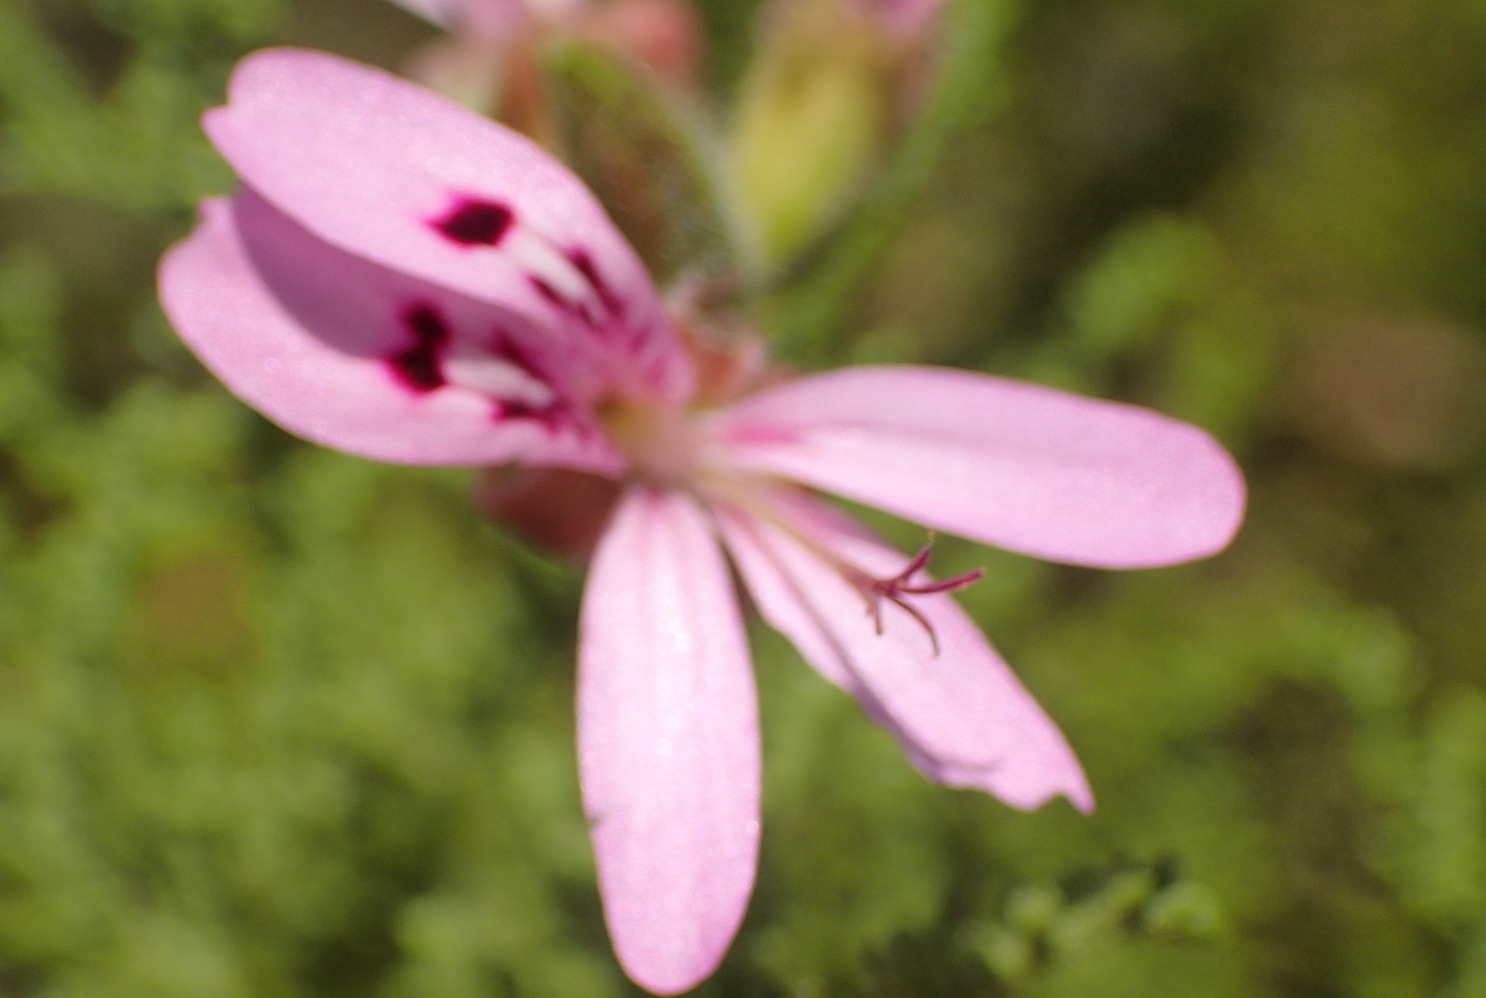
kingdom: Plantae
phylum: Tracheophyta
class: Magnoliopsida
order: Geraniales
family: Geraniaceae
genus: Pelargonium
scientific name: Pelargonium denticulatum
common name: Pine geranium
